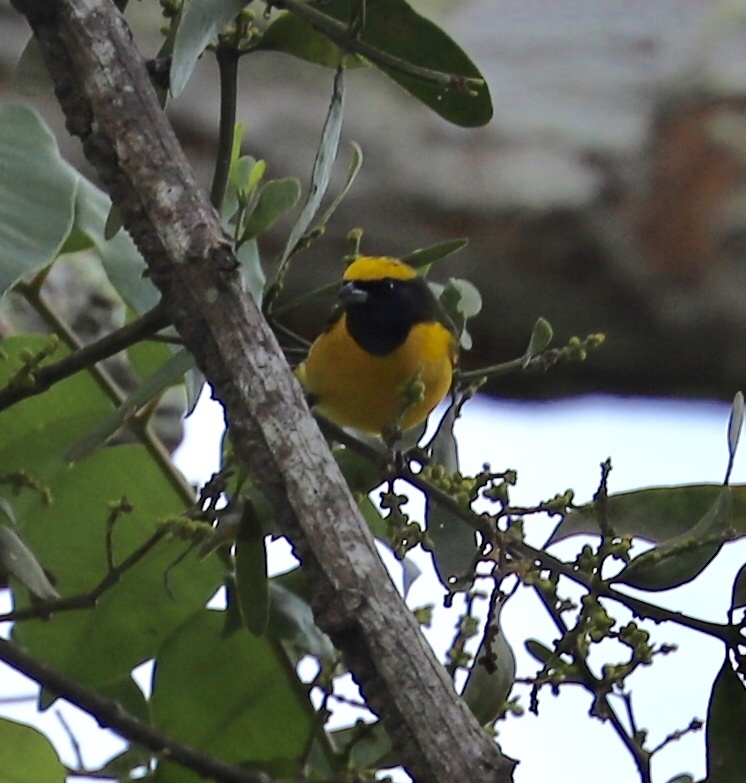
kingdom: Animalia
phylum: Chordata
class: Aves
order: Passeriformes
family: Fringillidae
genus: Euphonia
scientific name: Euphonia luteicapilla
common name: Yellow-crowned euphonia
